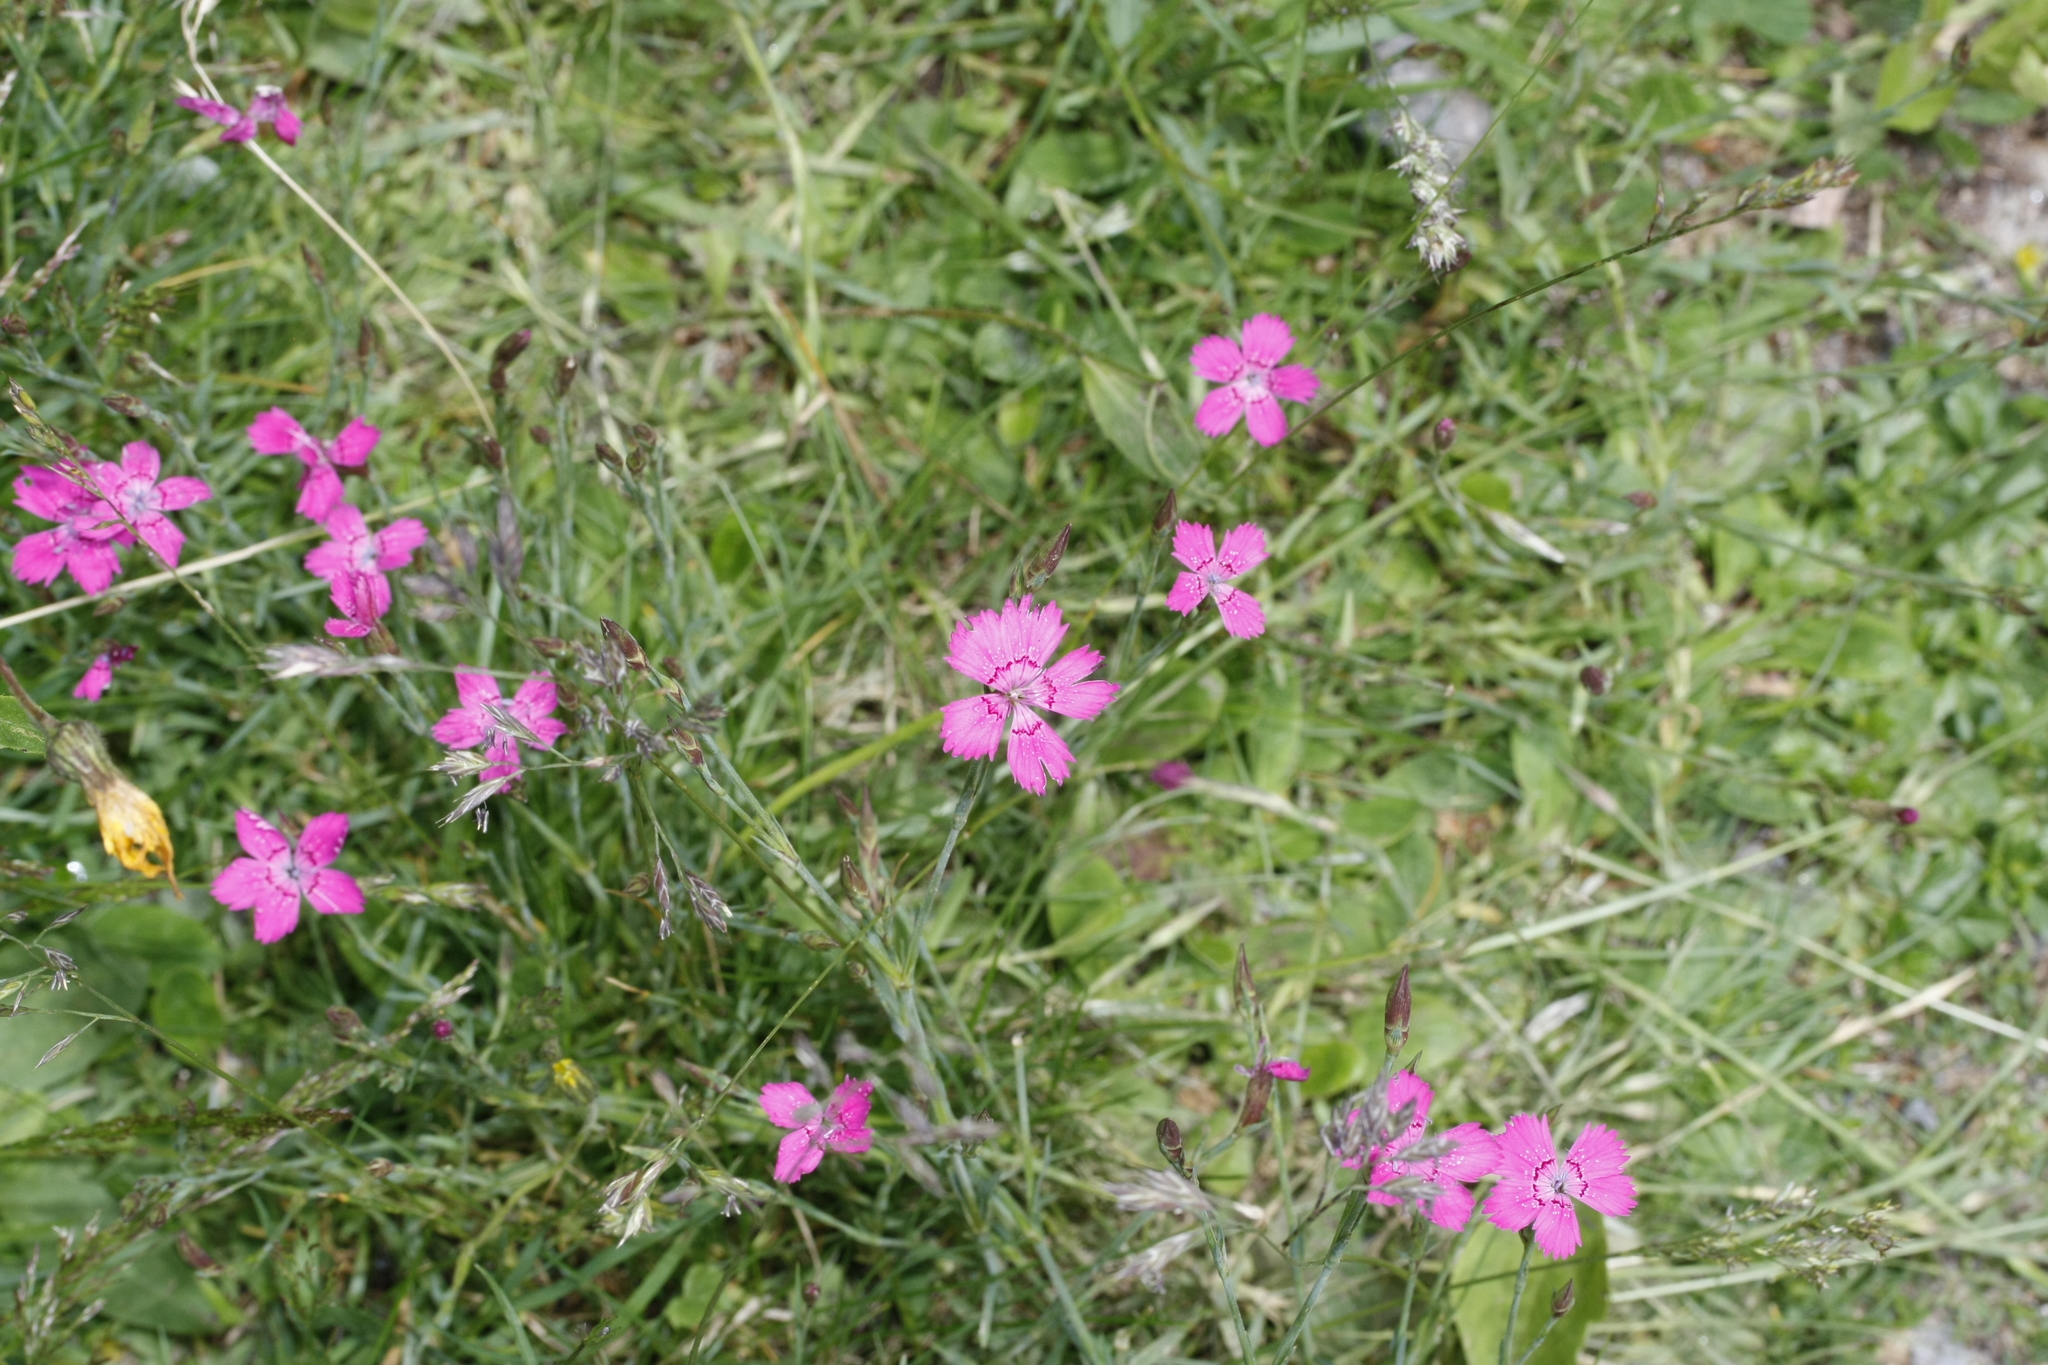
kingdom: Plantae
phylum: Tracheophyta
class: Magnoliopsida
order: Caryophyllales
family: Caryophyllaceae
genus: Dianthus
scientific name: Dianthus deltoides
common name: Maiden pink
